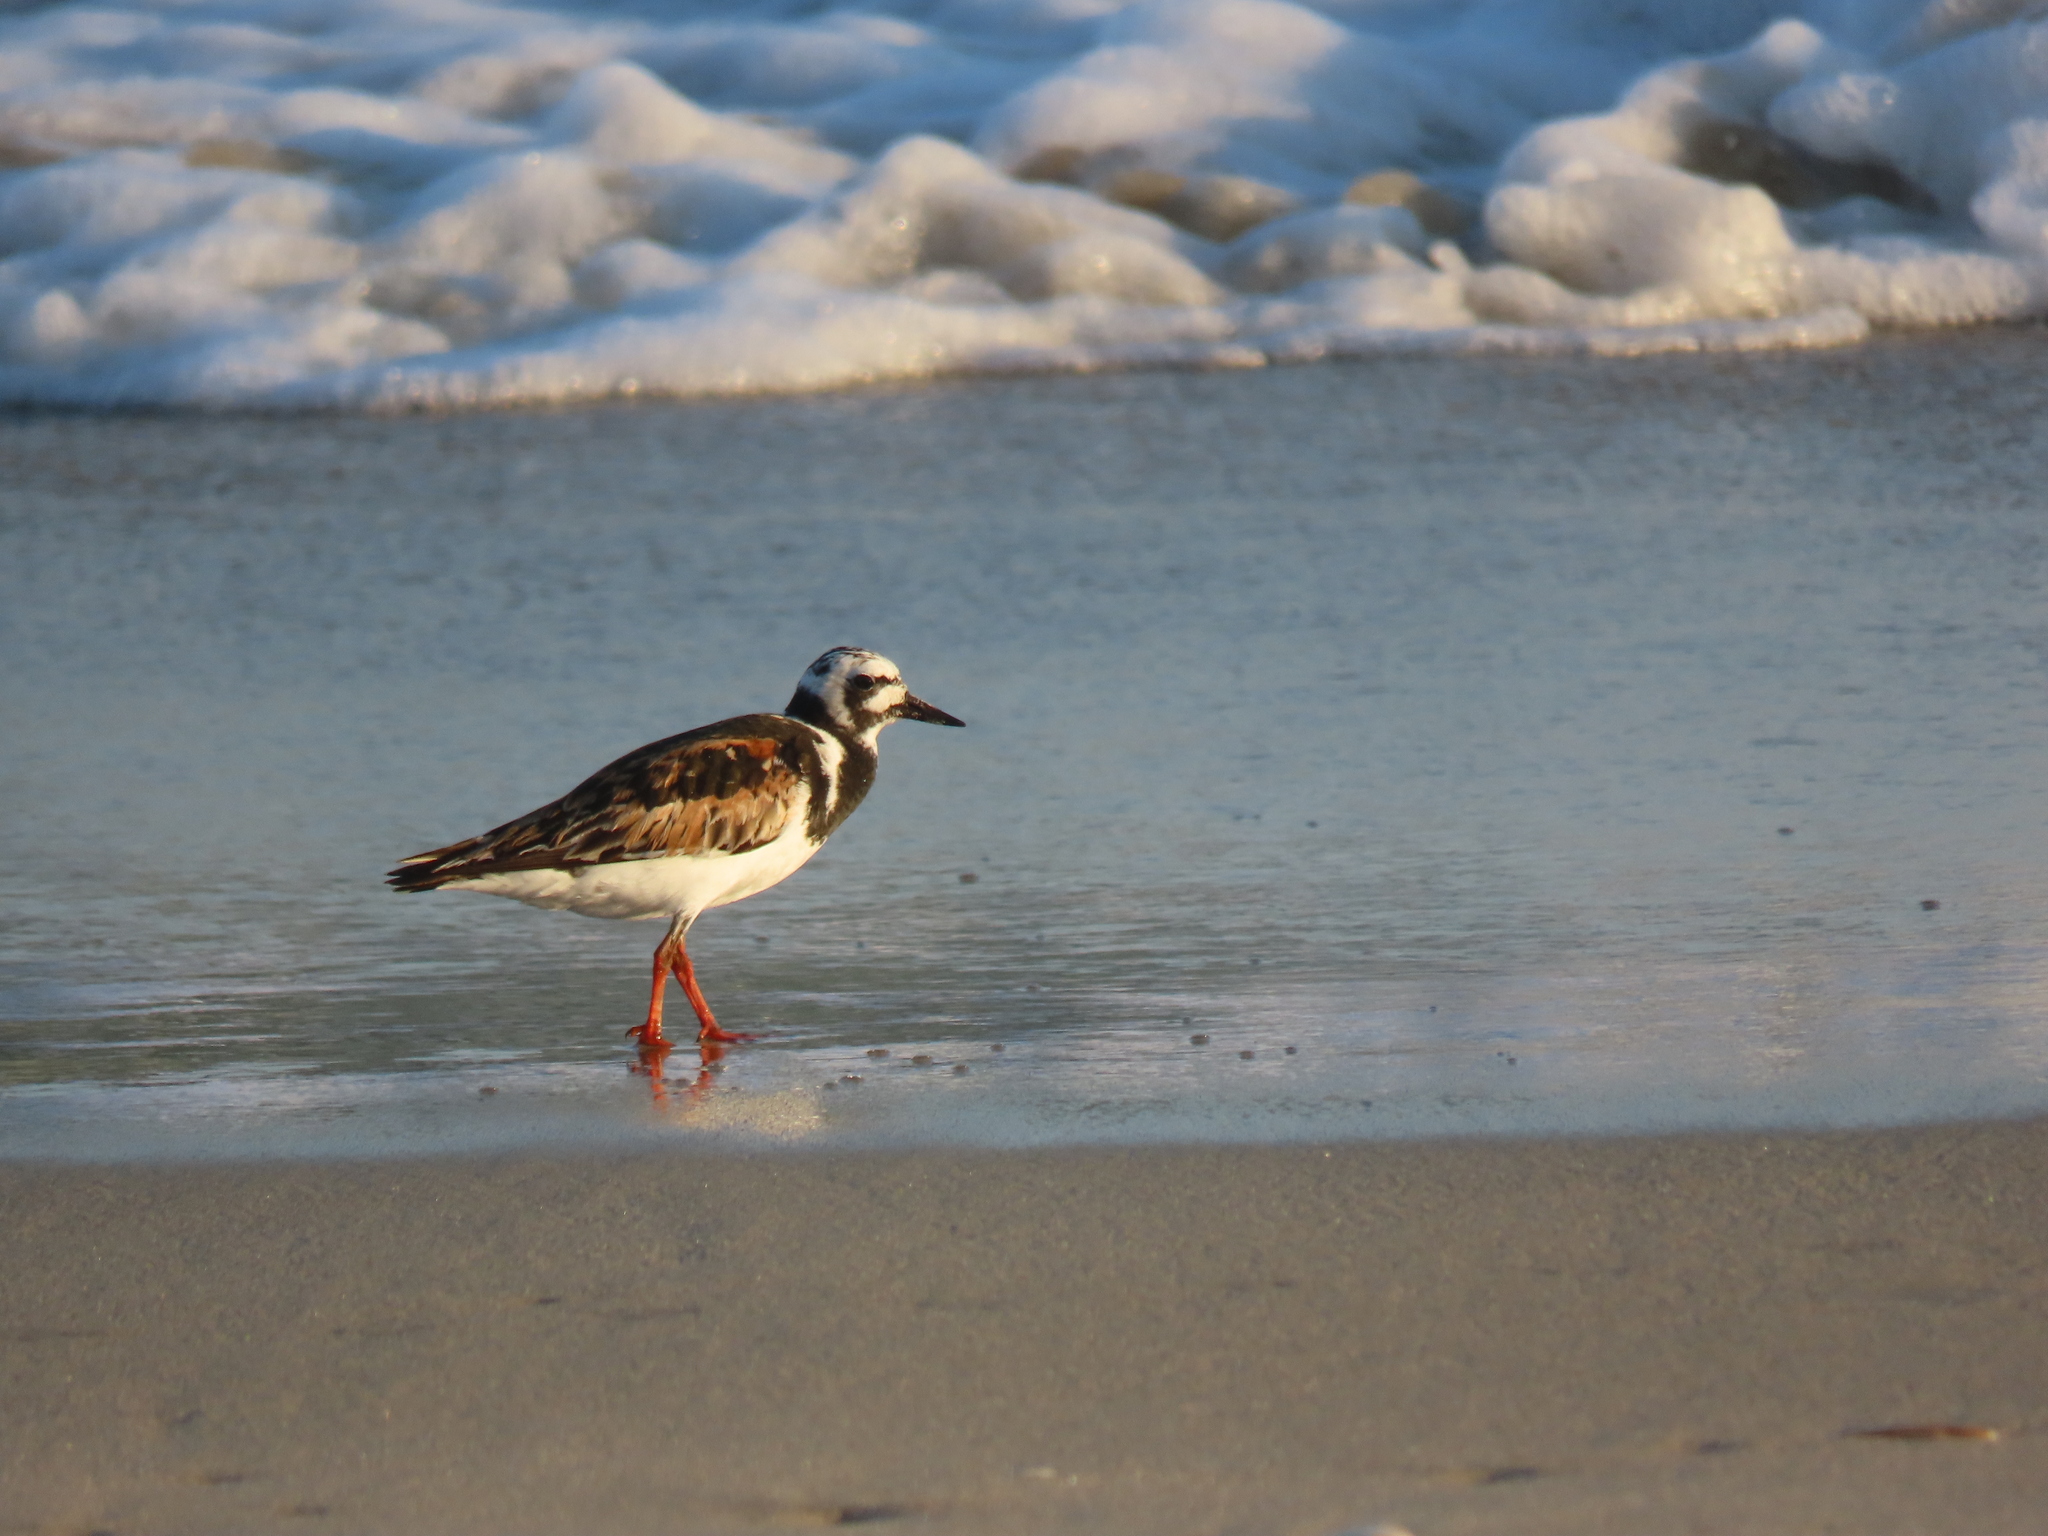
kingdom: Animalia
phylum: Chordata
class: Aves
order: Charadriiformes
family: Scolopacidae
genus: Arenaria
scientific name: Arenaria interpres
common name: Ruddy turnstone
